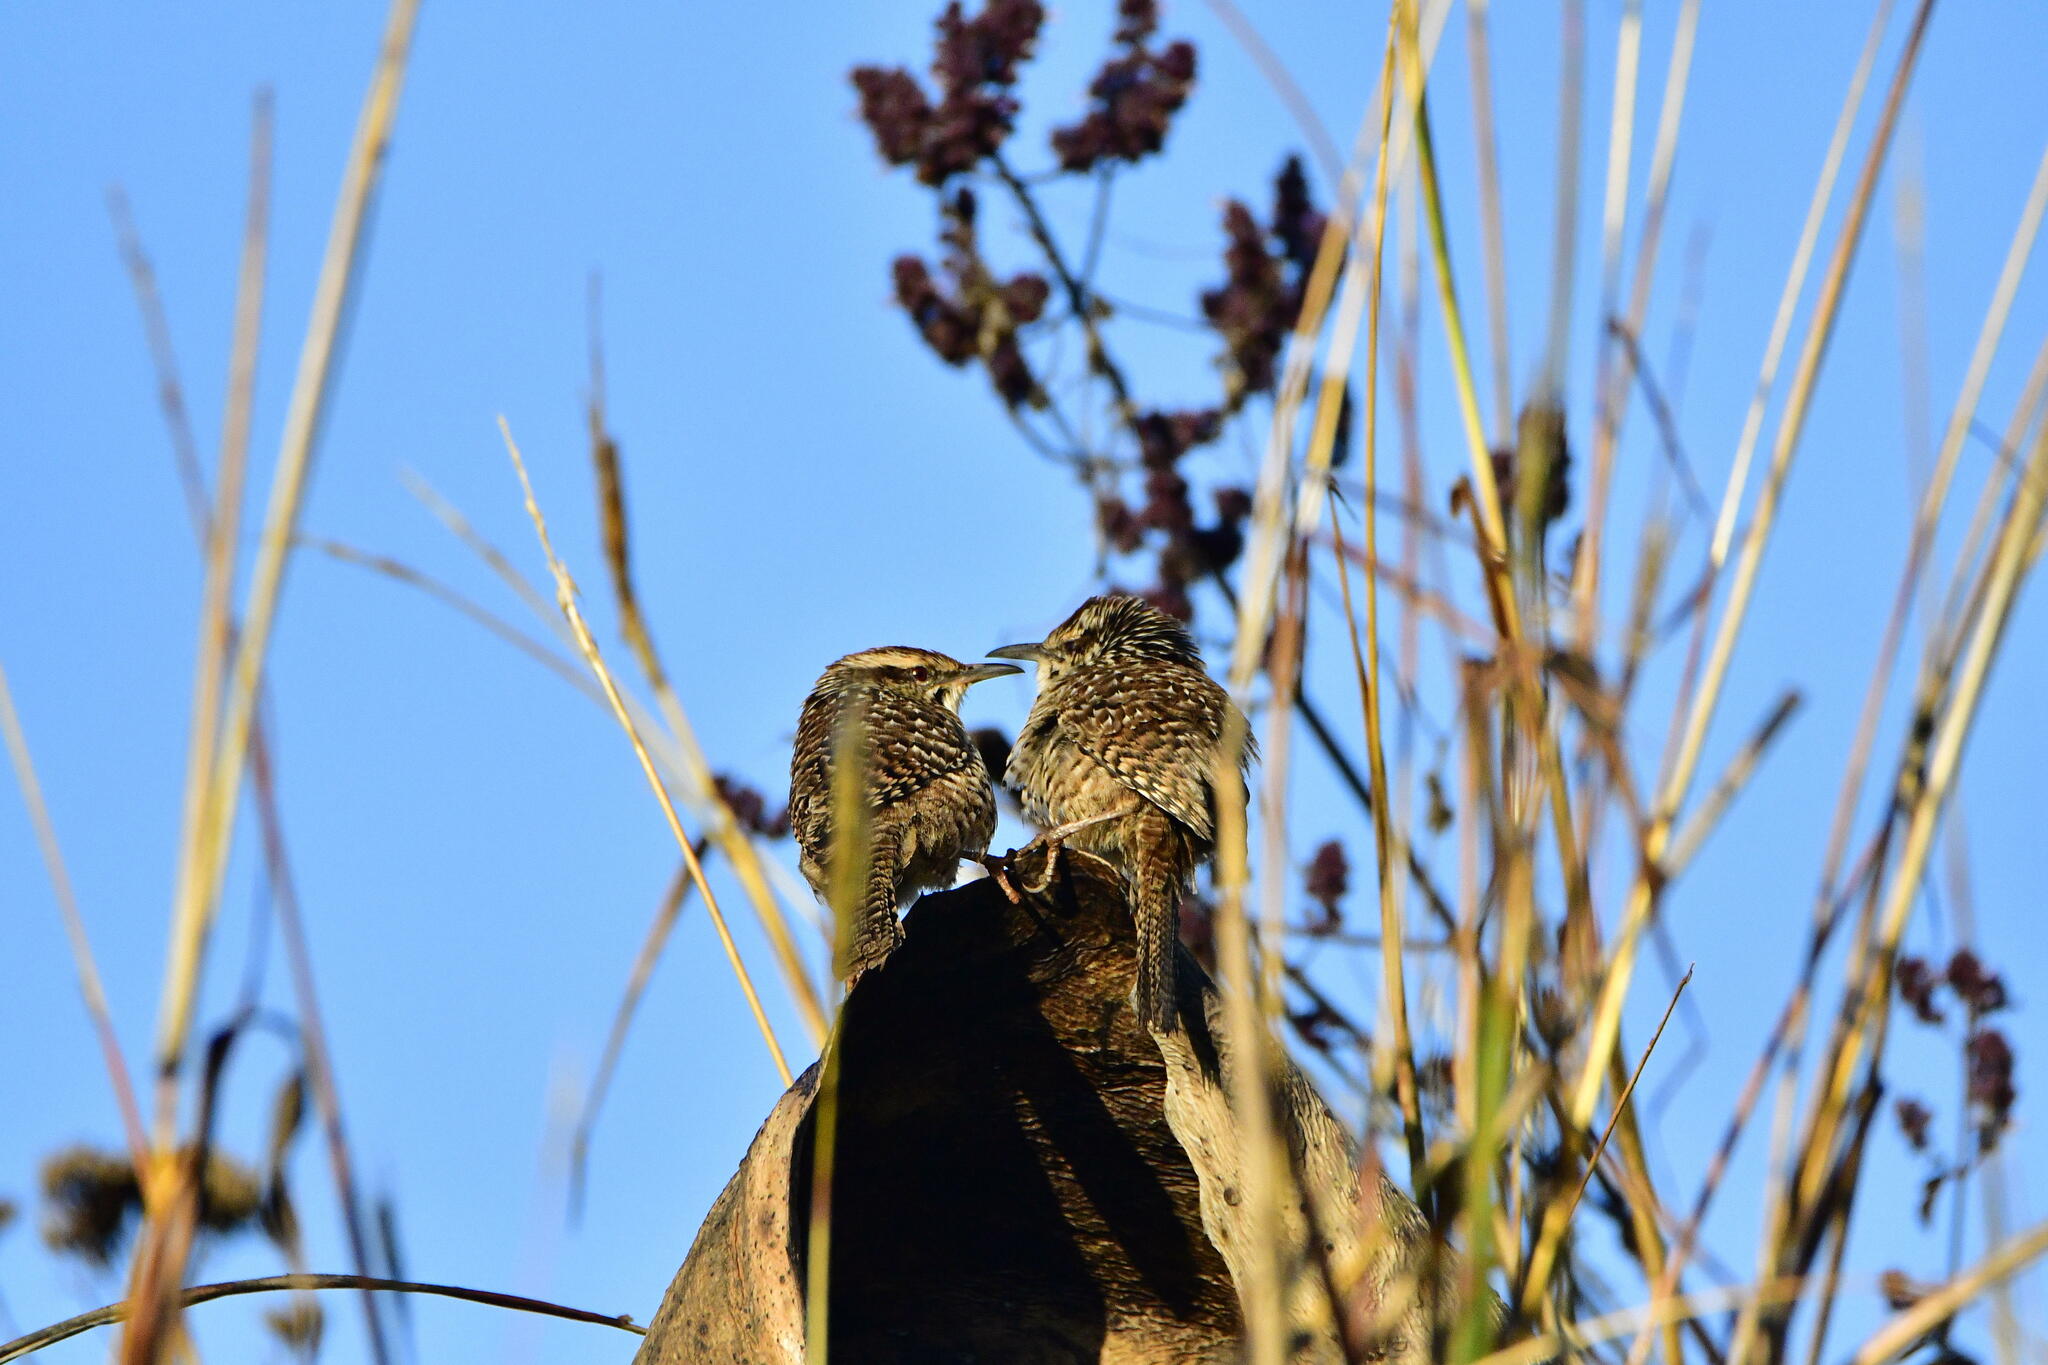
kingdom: Animalia
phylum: Chordata
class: Aves
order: Passeriformes
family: Troglodytidae
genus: Campylorhynchus
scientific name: Campylorhynchus gularis
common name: Spotted wren
